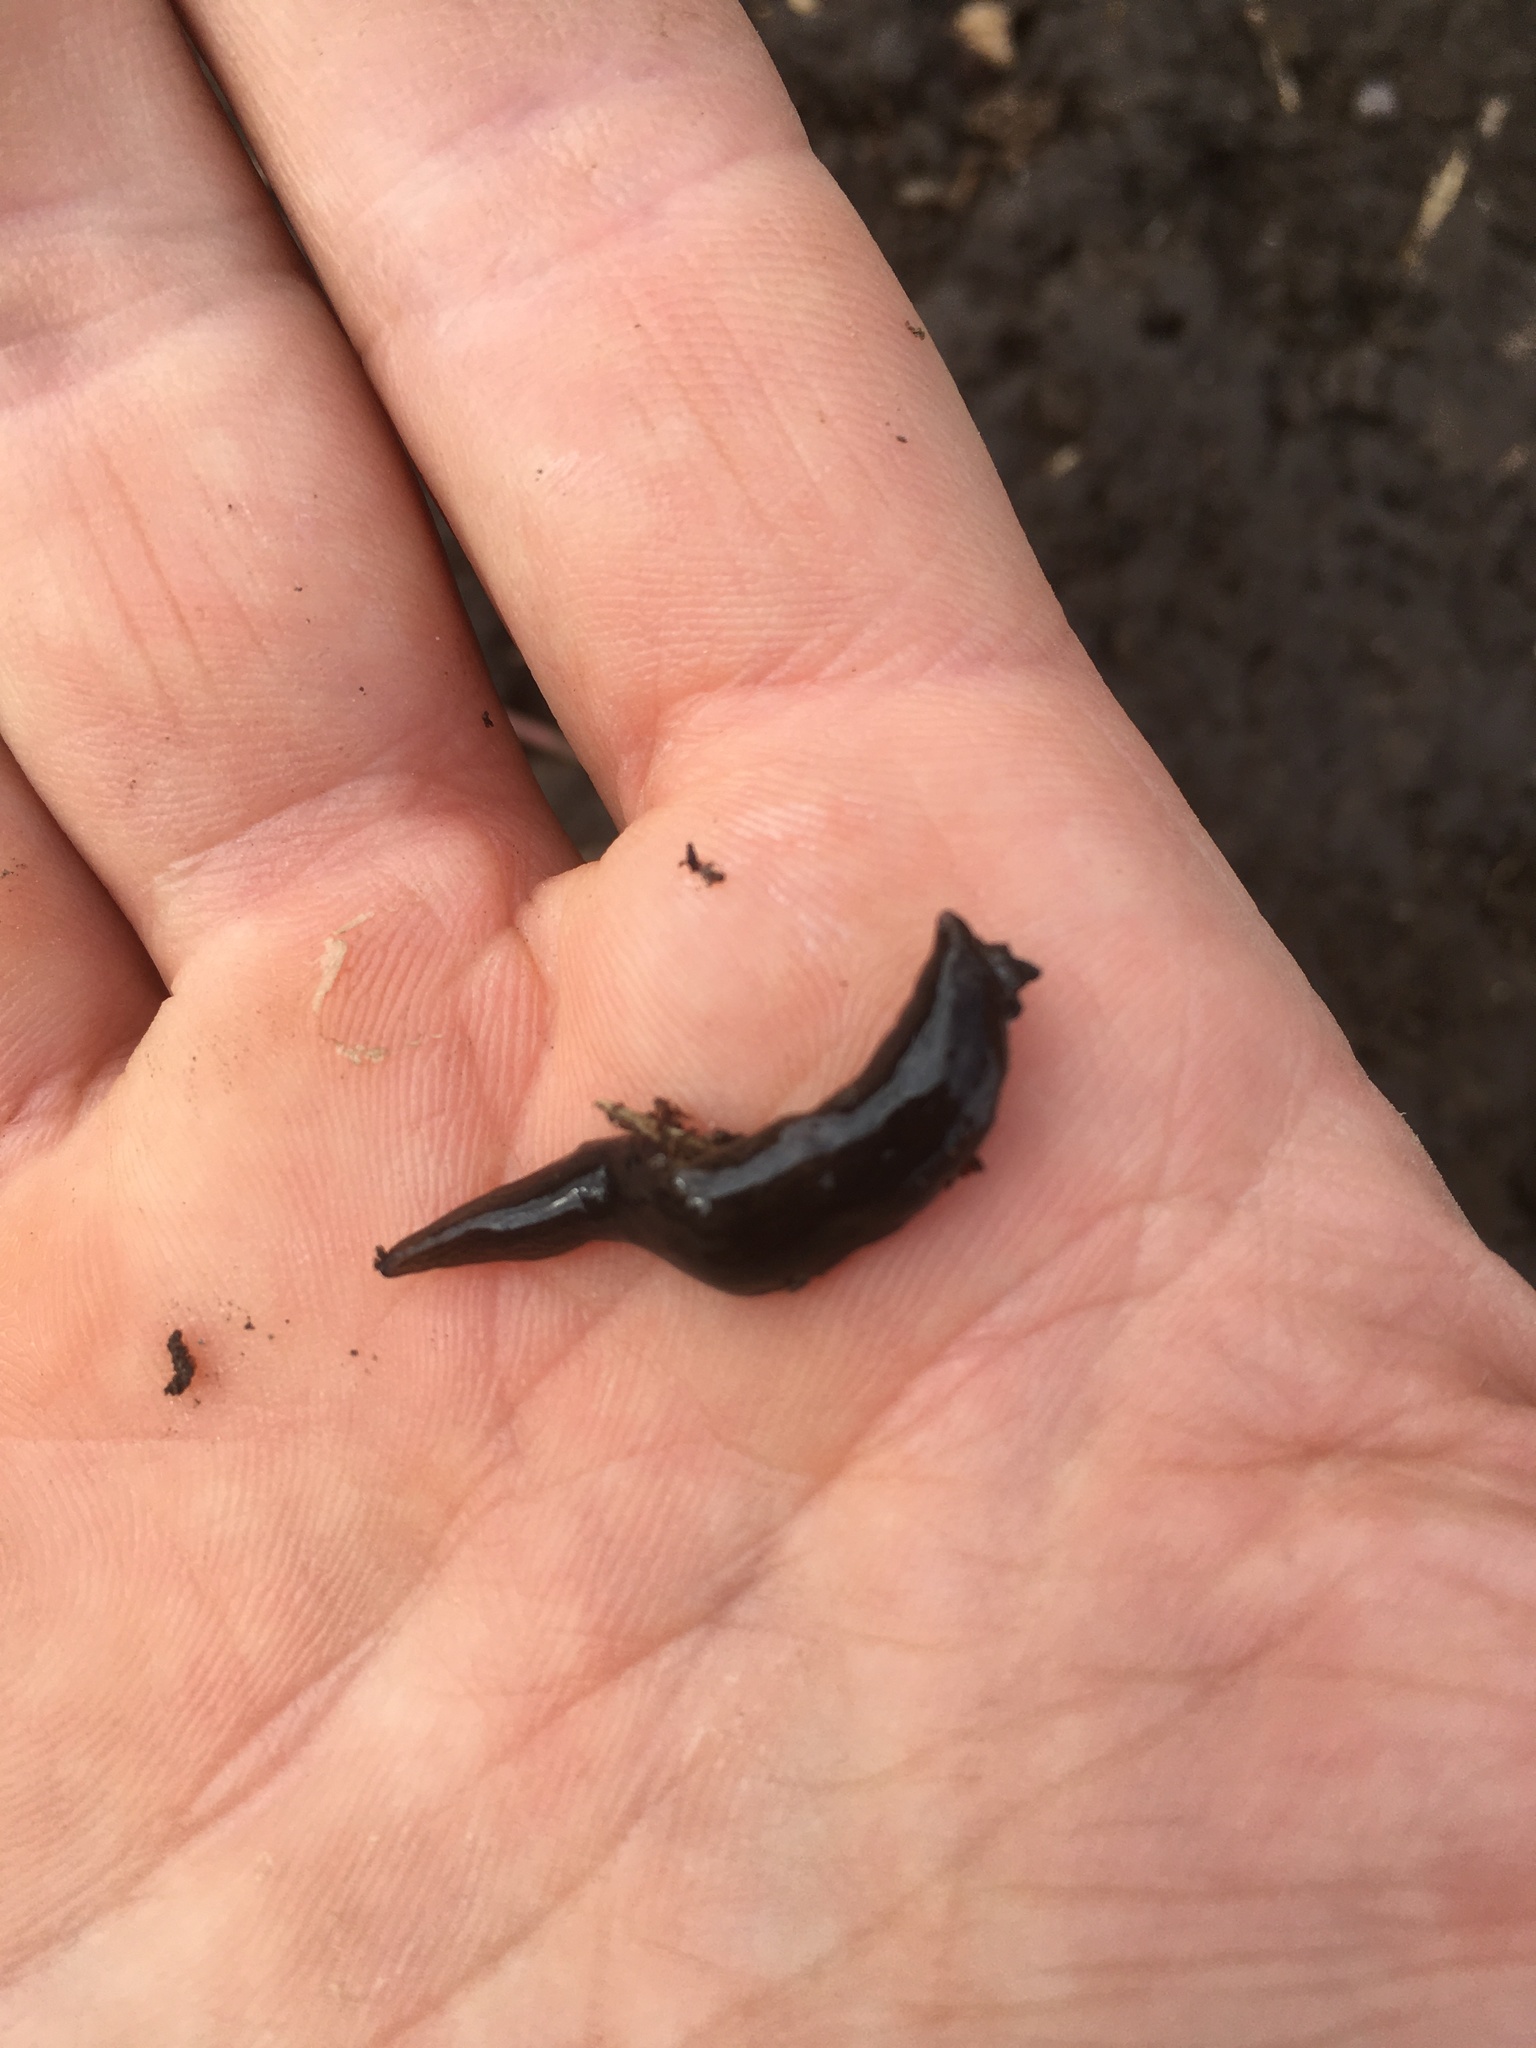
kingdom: Animalia
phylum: Platyhelminthes
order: Tricladida
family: Geoplanidae
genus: Obama
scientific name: Obama nungara
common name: Obama flatworm
